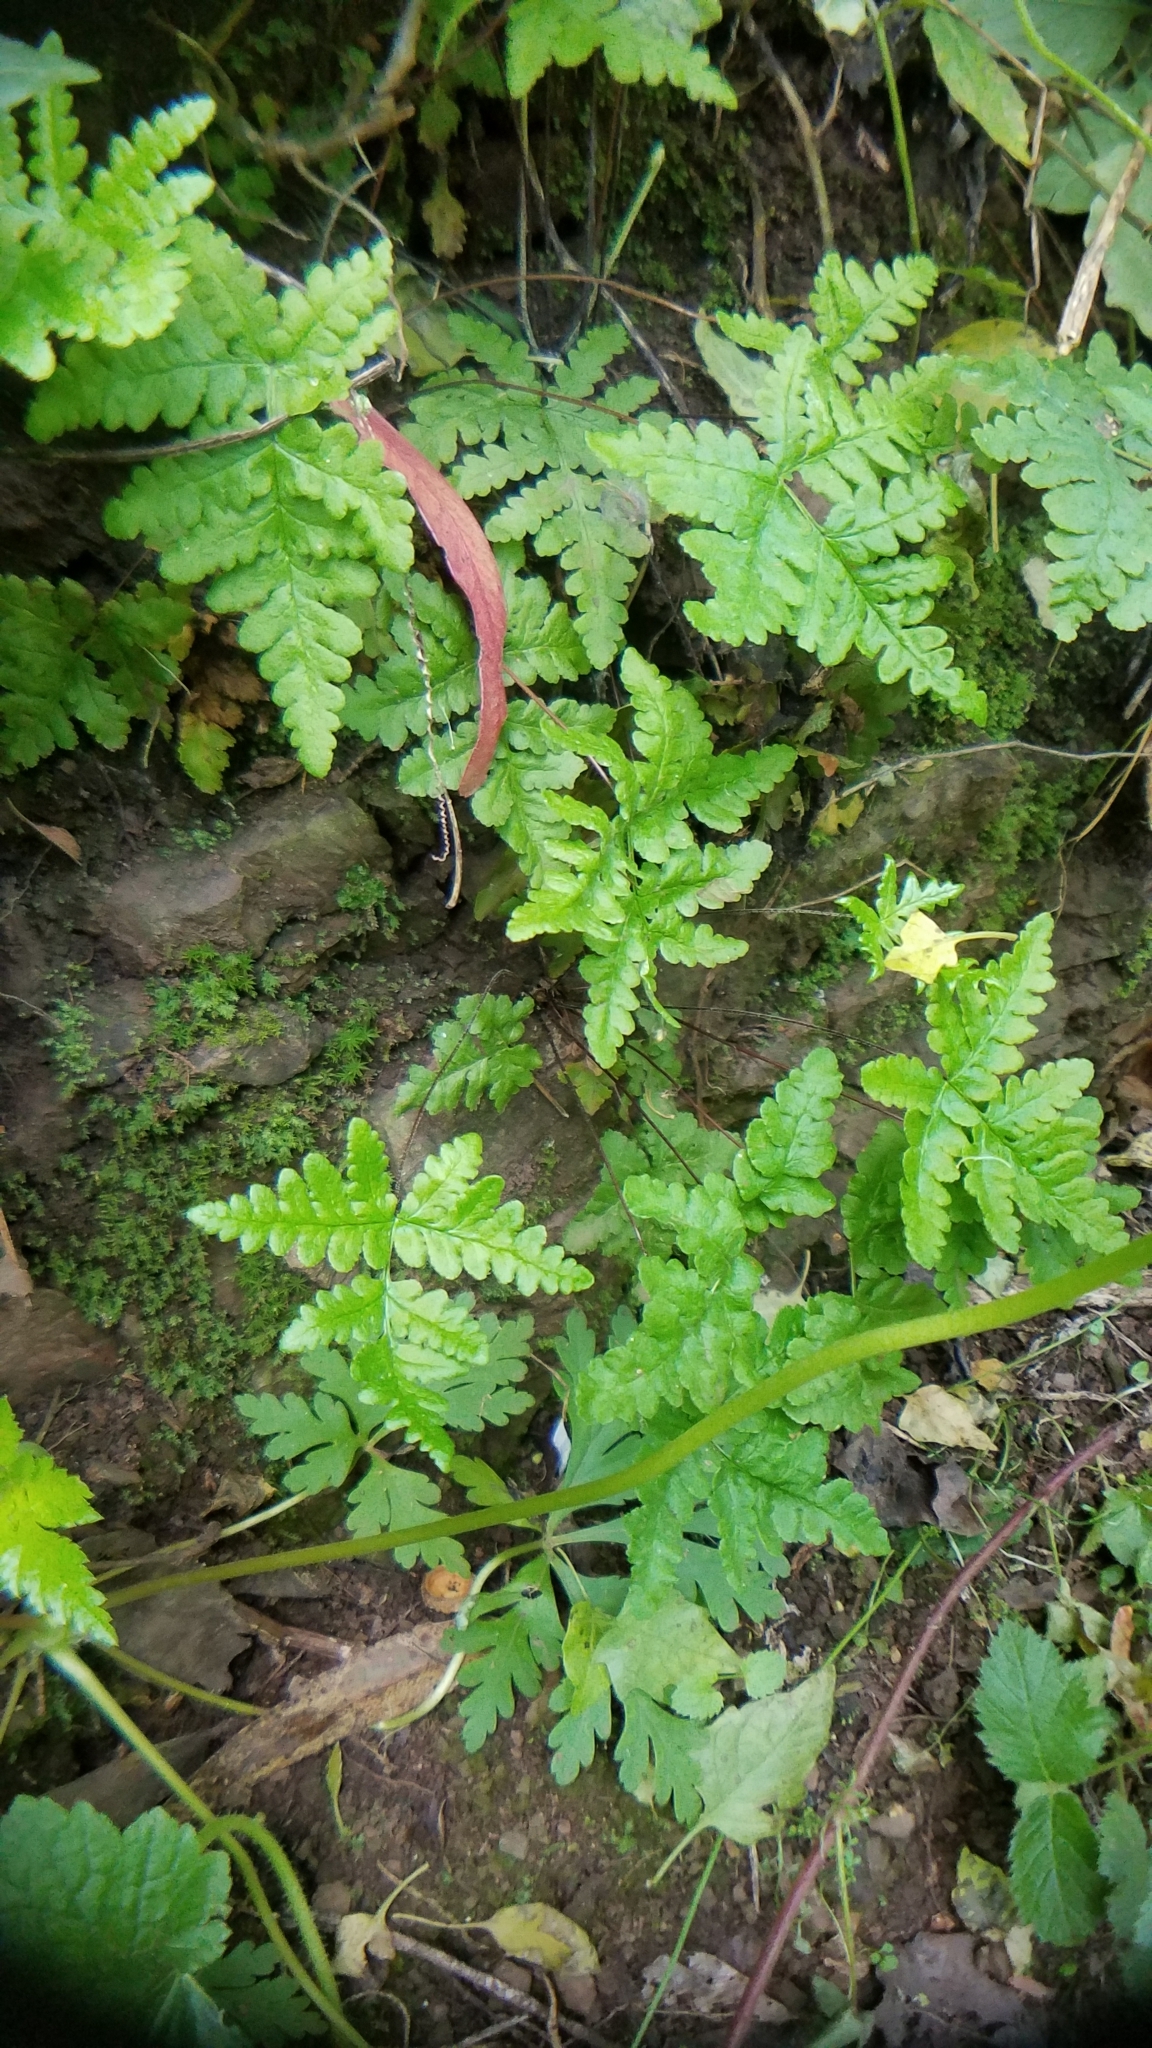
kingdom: Plantae
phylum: Tracheophyta
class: Polypodiopsida
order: Polypodiales
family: Pteridaceae
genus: Pentagramma
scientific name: Pentagramma triangularis
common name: Gold fern
